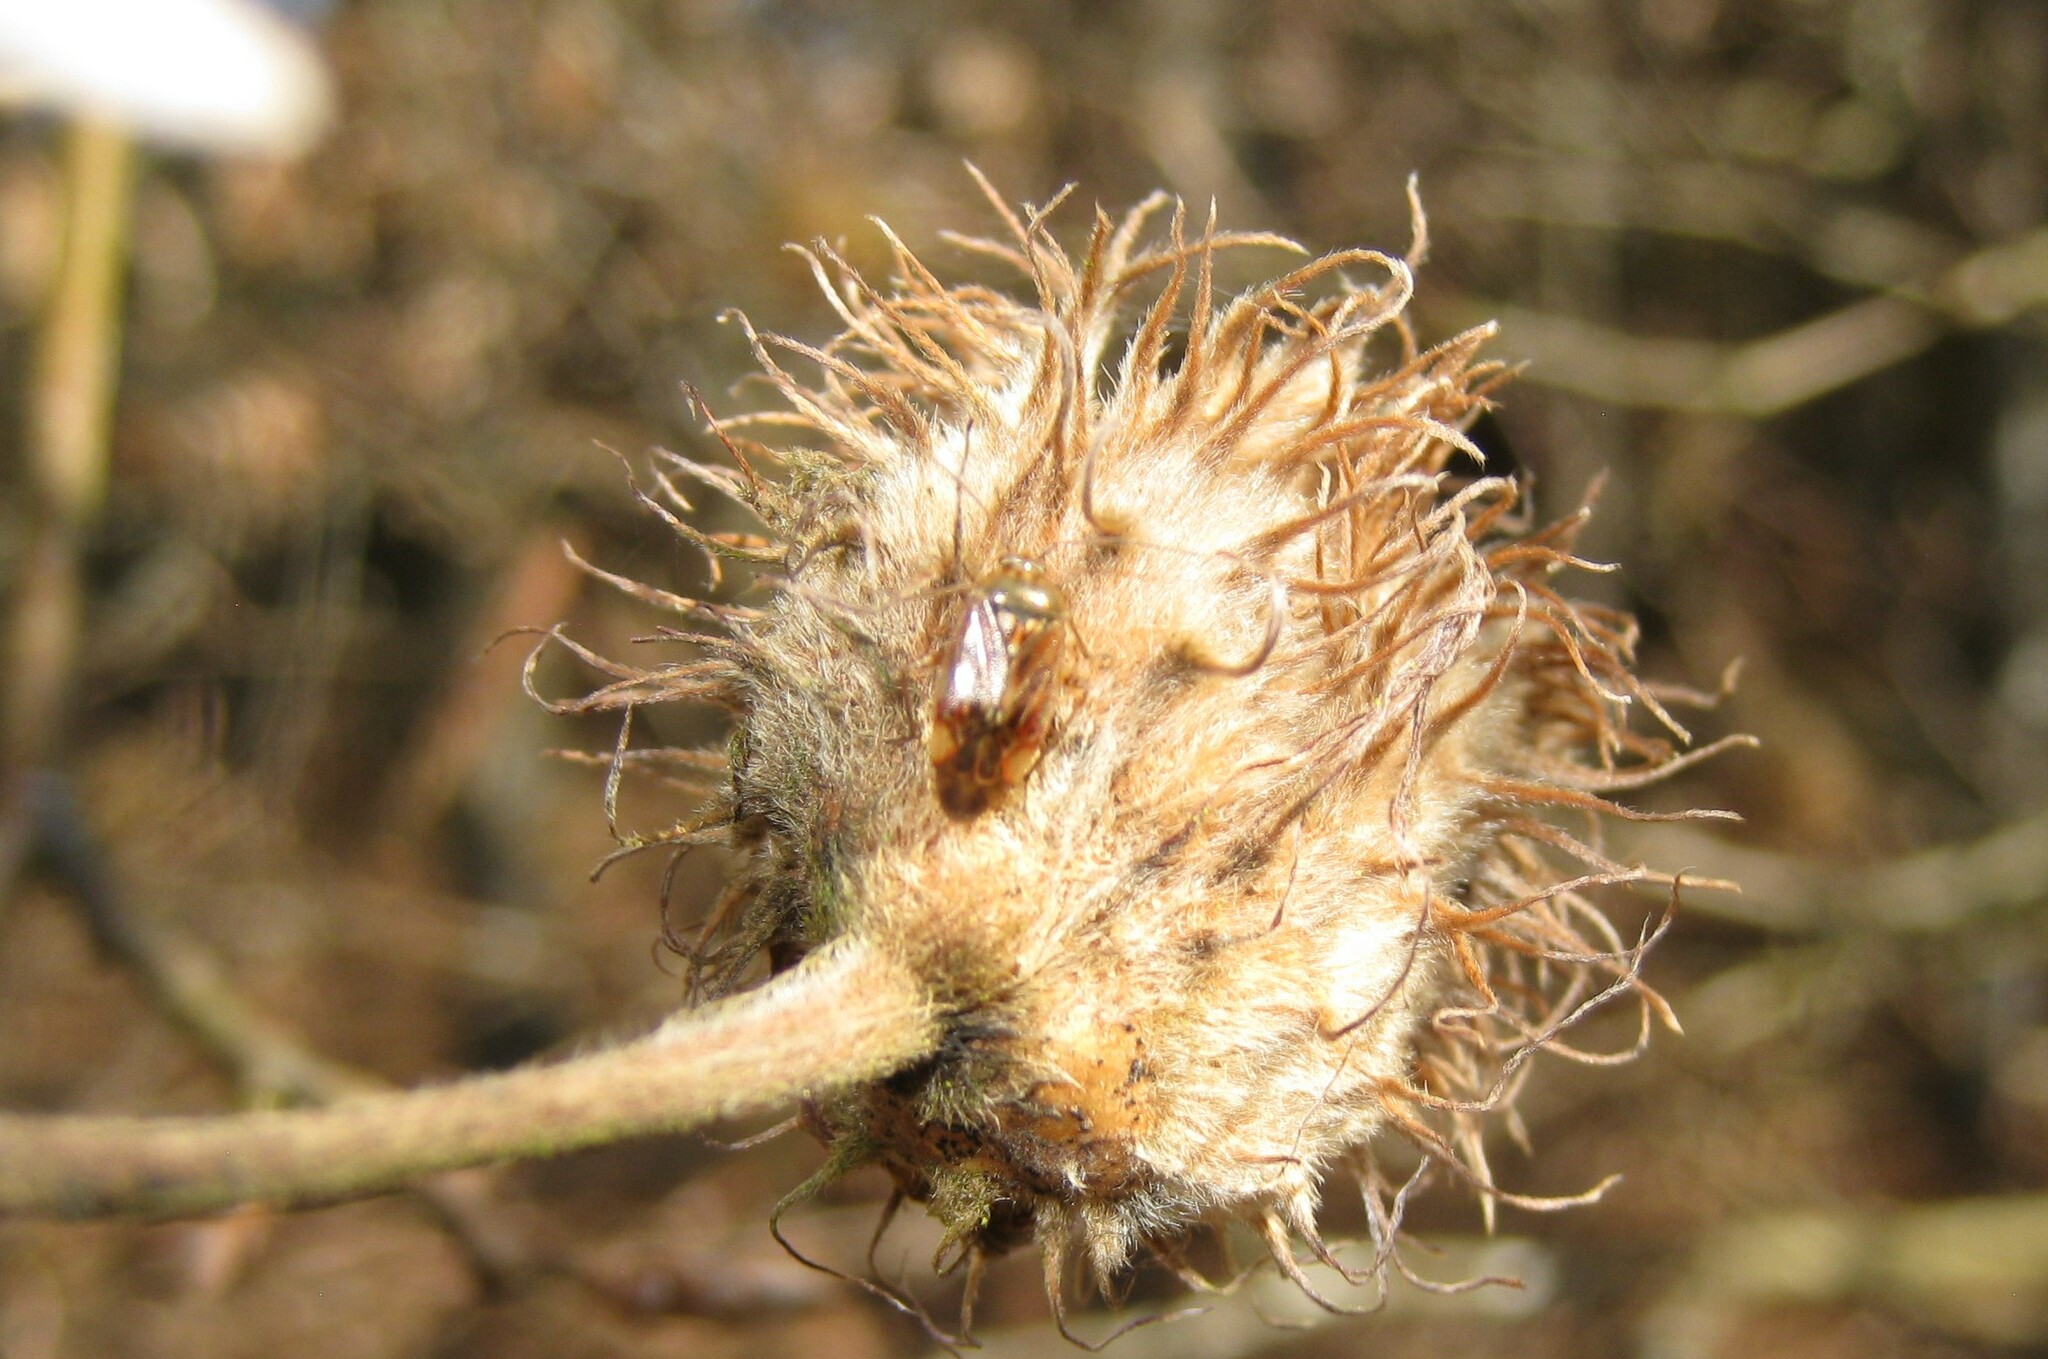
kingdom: Animalia
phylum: Arthropoda
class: Insecta
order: Hemiptera
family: Miridae
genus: Pinalitus
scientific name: Pinalitus cervinus
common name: Plant bug
